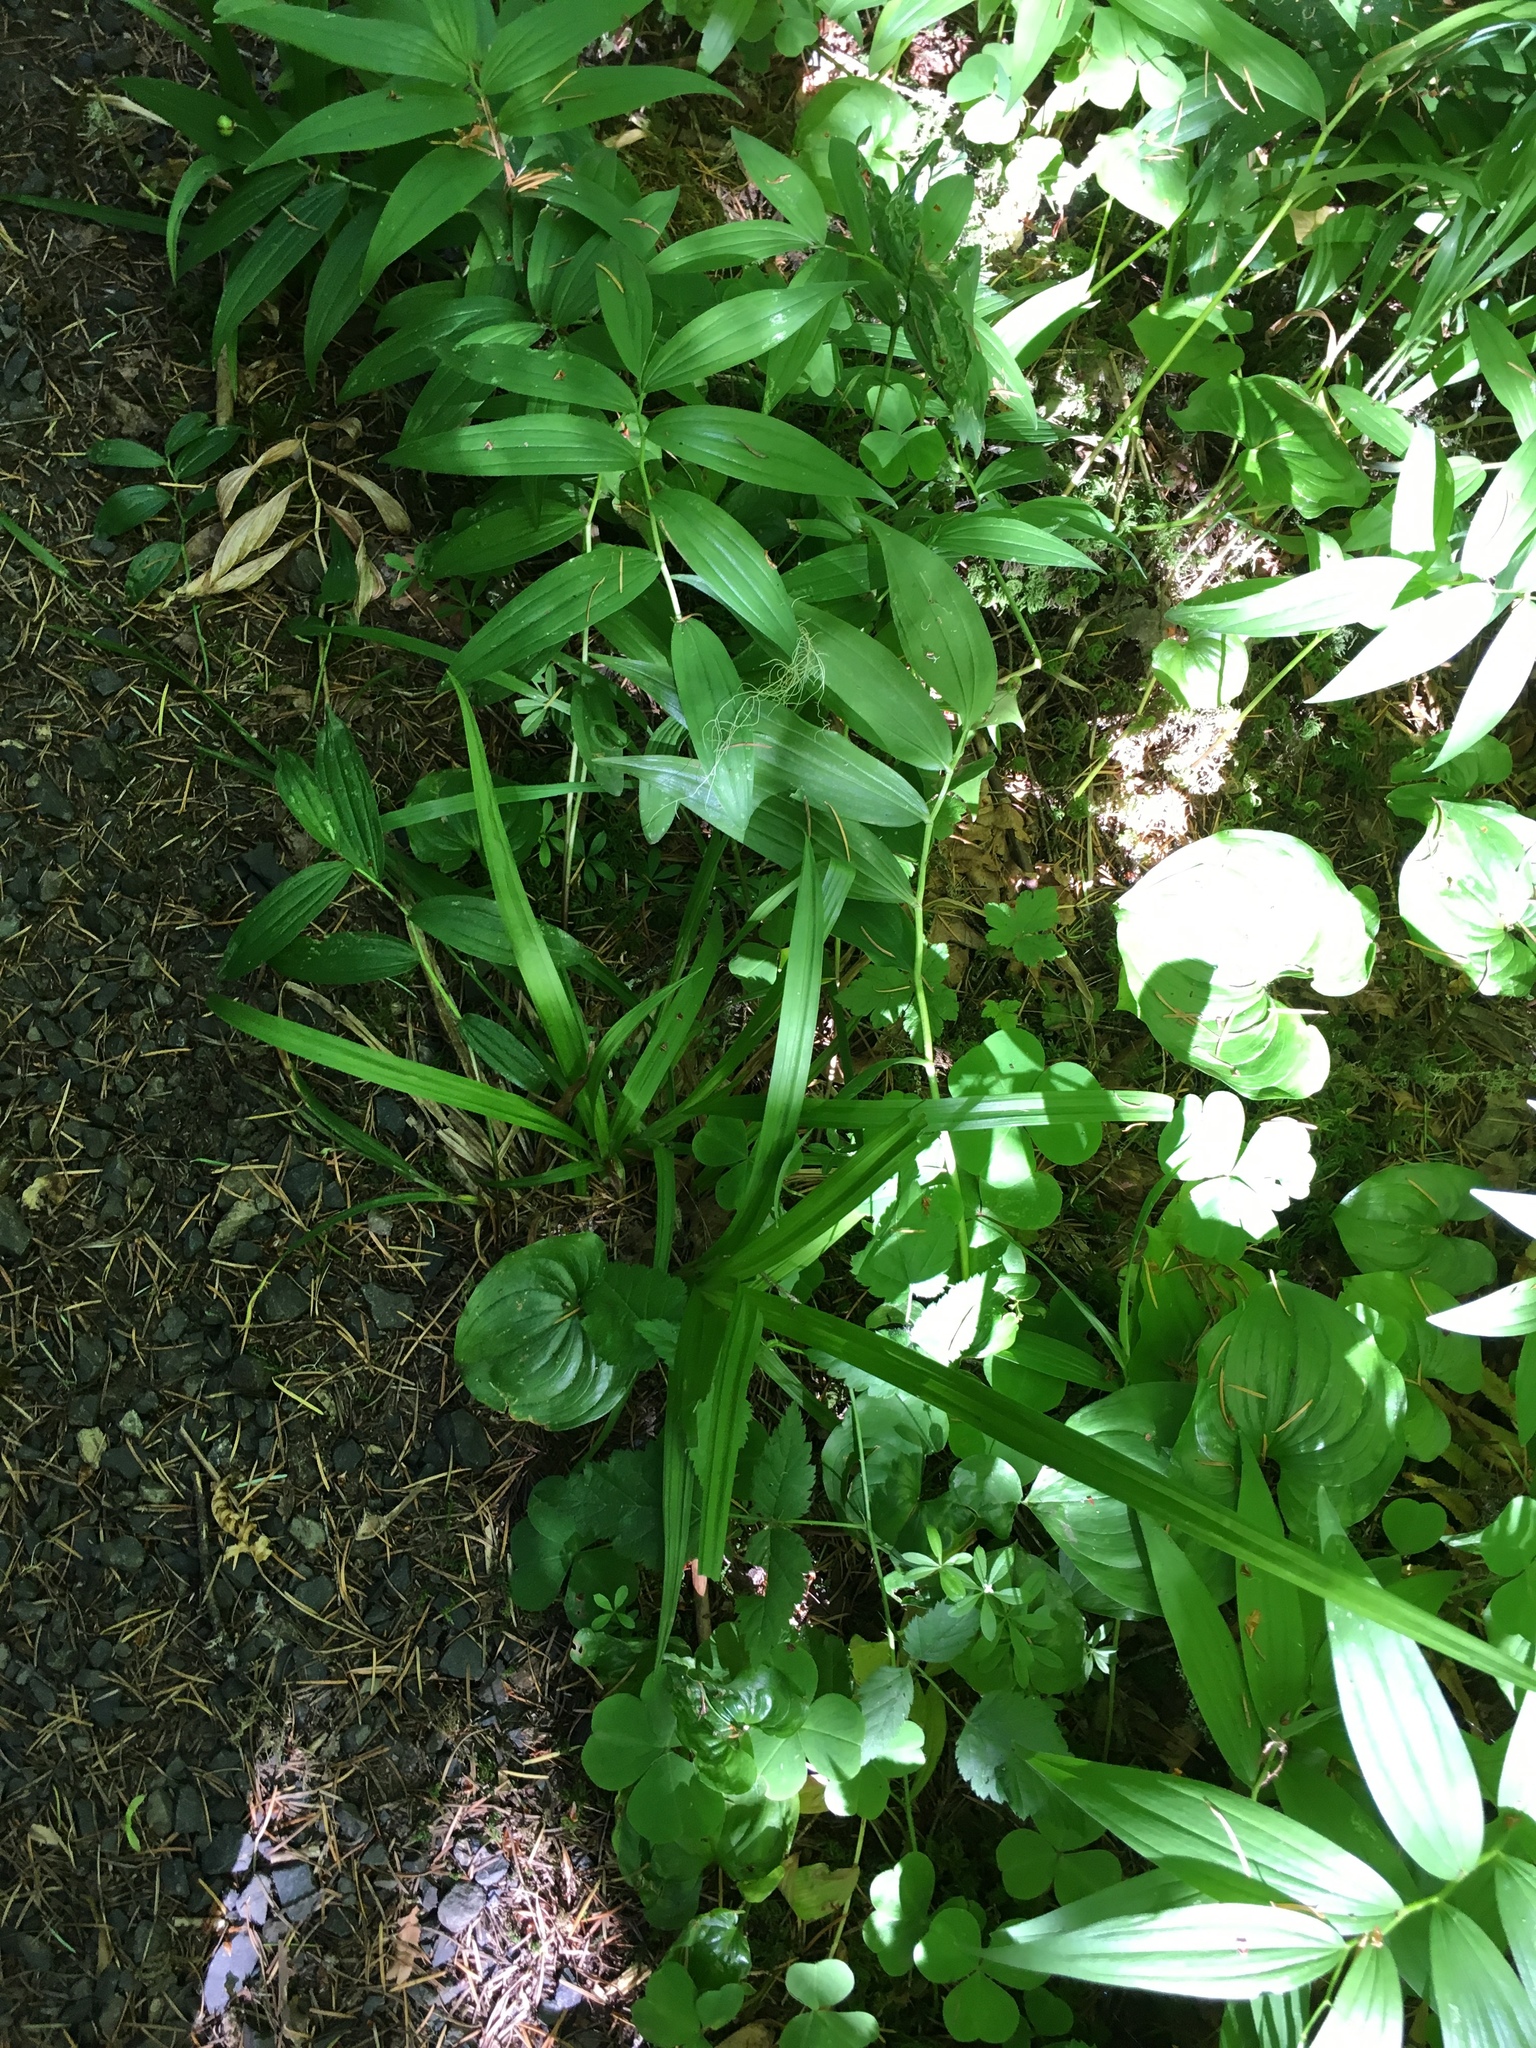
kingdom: Plantae
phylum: Tracheophyta
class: Liliopsida
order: Asparagales
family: Asparagaceae
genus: Maianthemum
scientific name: Maianthemum stellatum
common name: Little false solomon's seal
